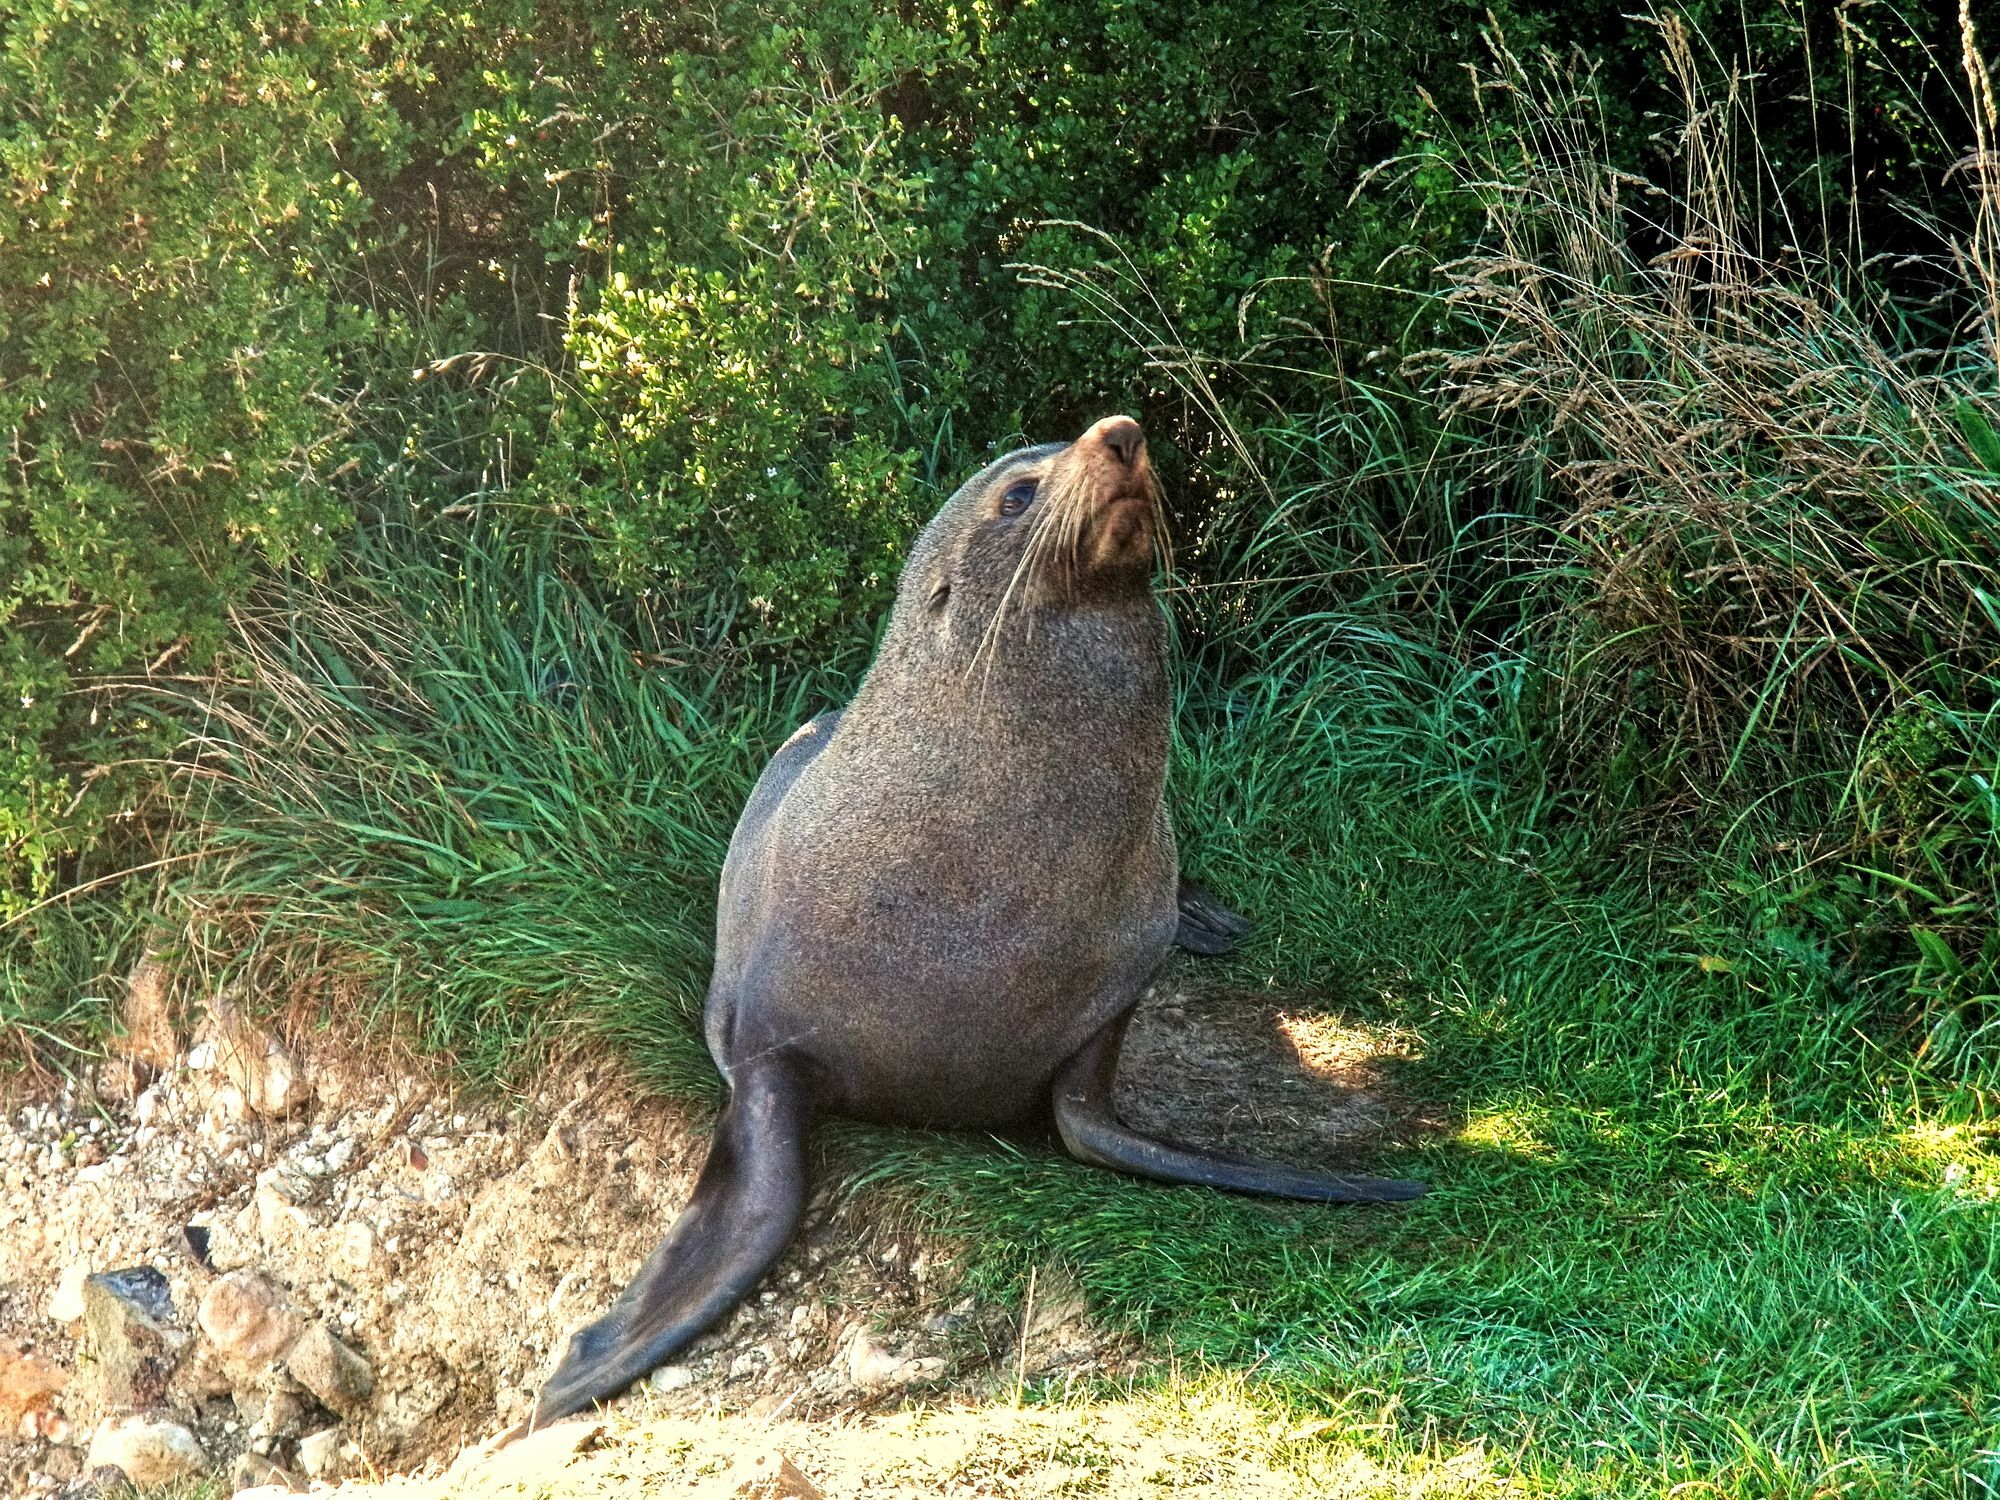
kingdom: Animalia
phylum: Chordata
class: Mammalia
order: Carnivora
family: Otariidae
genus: Arctocephalus
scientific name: Arctocephalus forsteri
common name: New zealand fur seal
